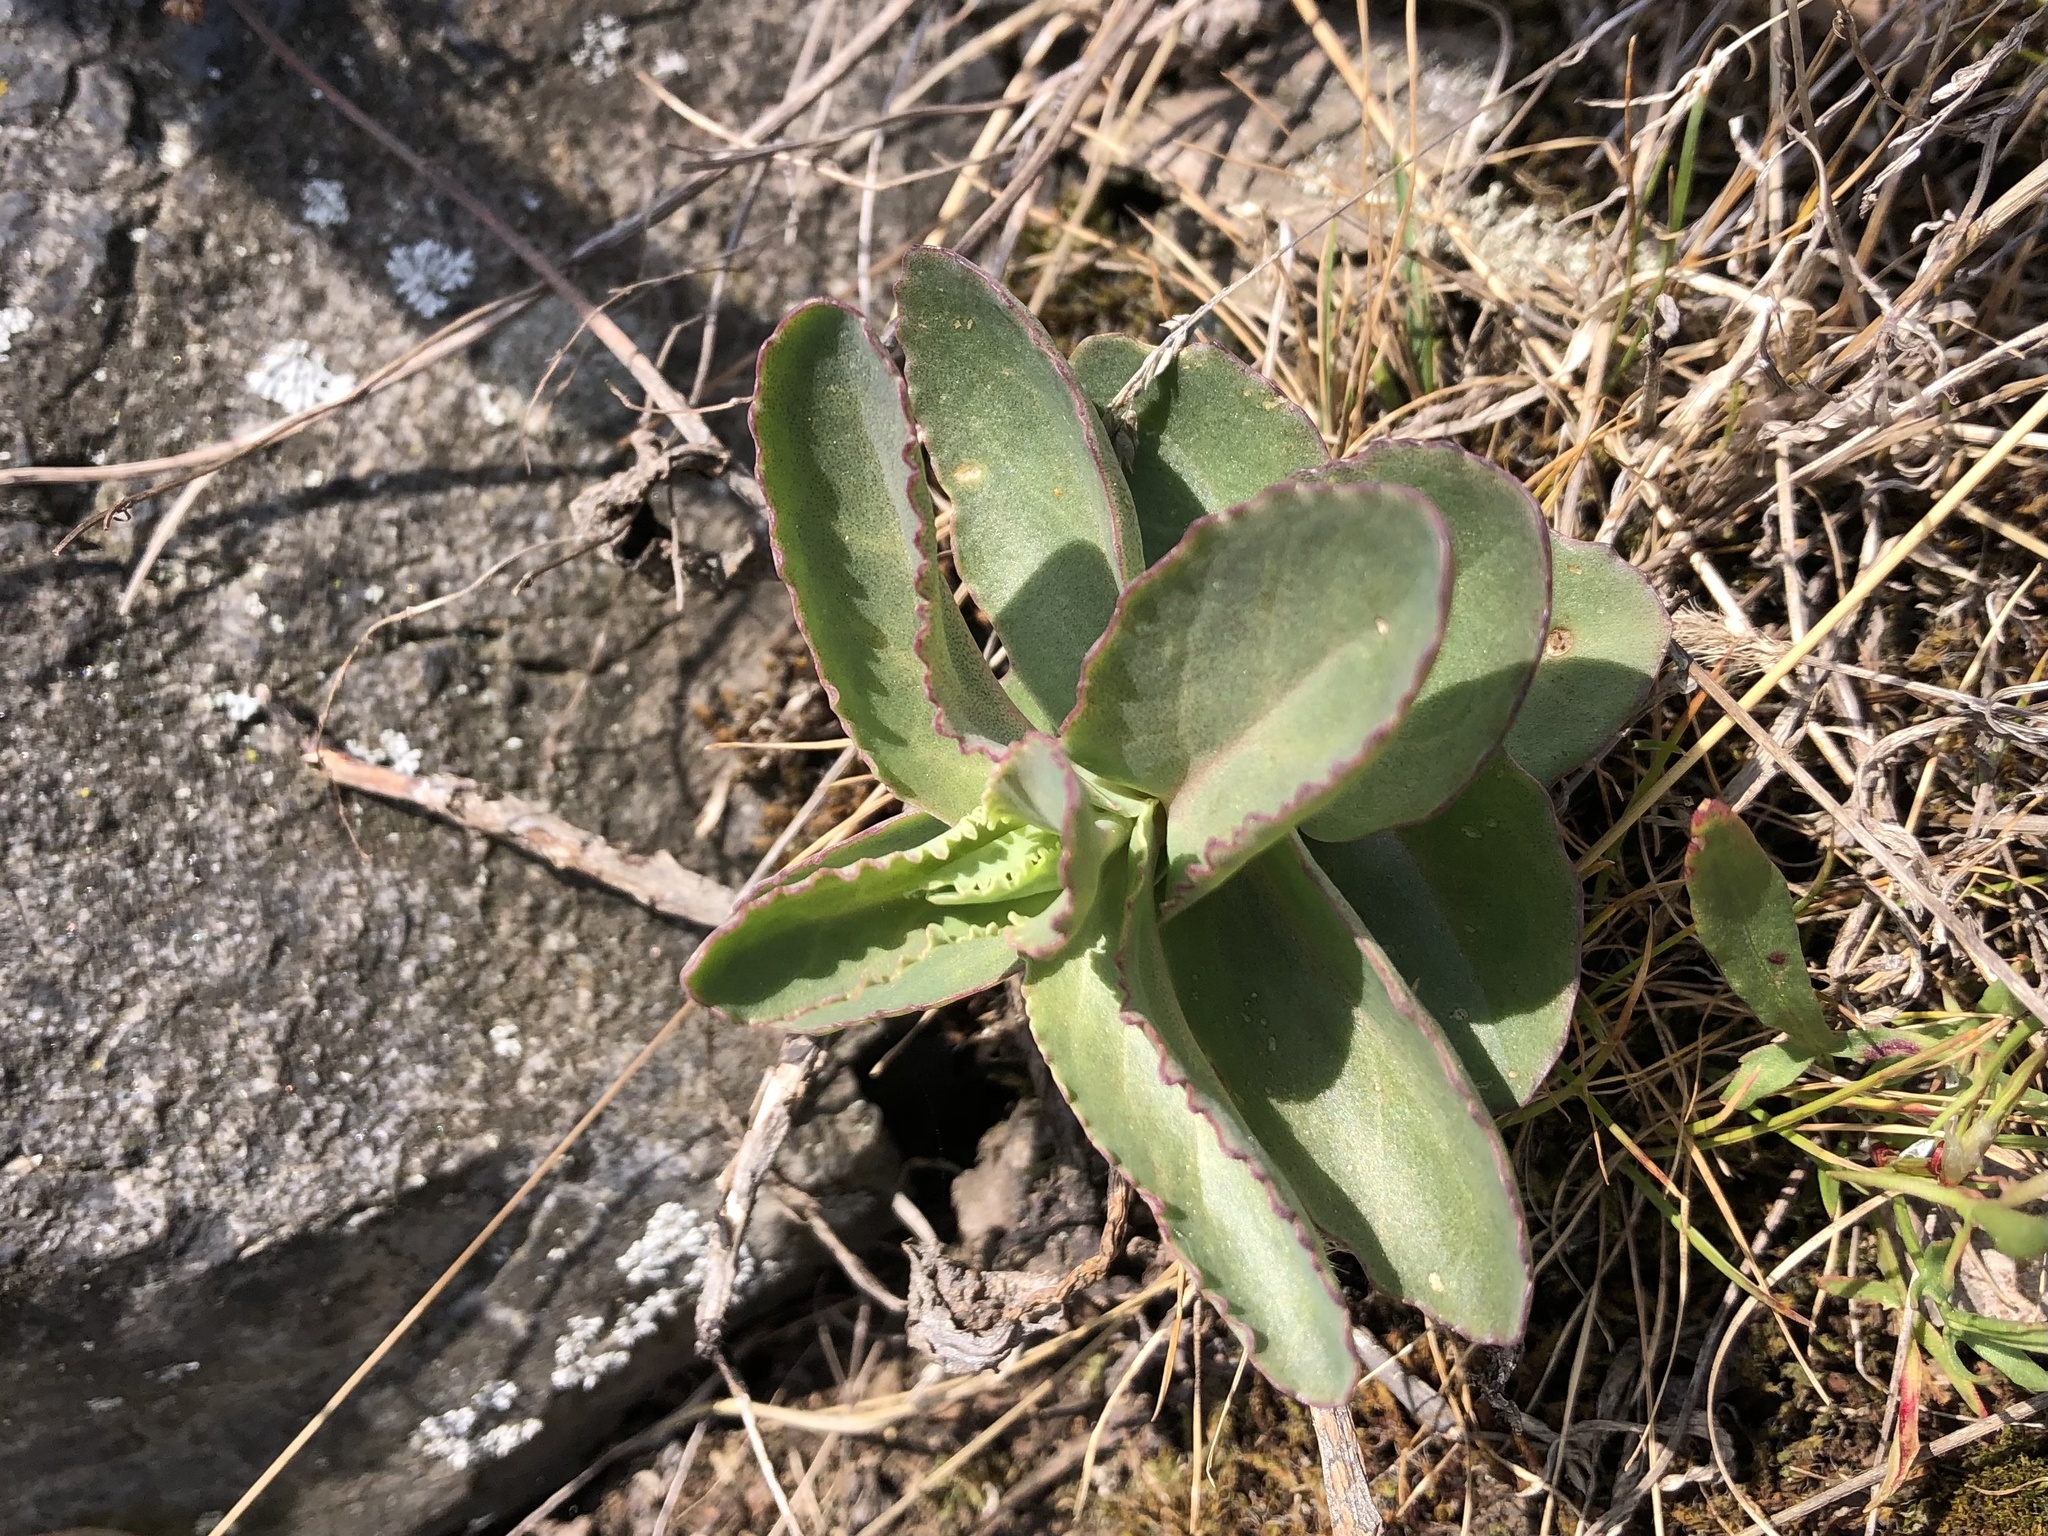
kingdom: Plantae
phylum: Tracheophyta
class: Magnoliopsida
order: Saxifragales
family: Crassulaceae
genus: Hylotelephium
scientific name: Hylotelephium maximum
